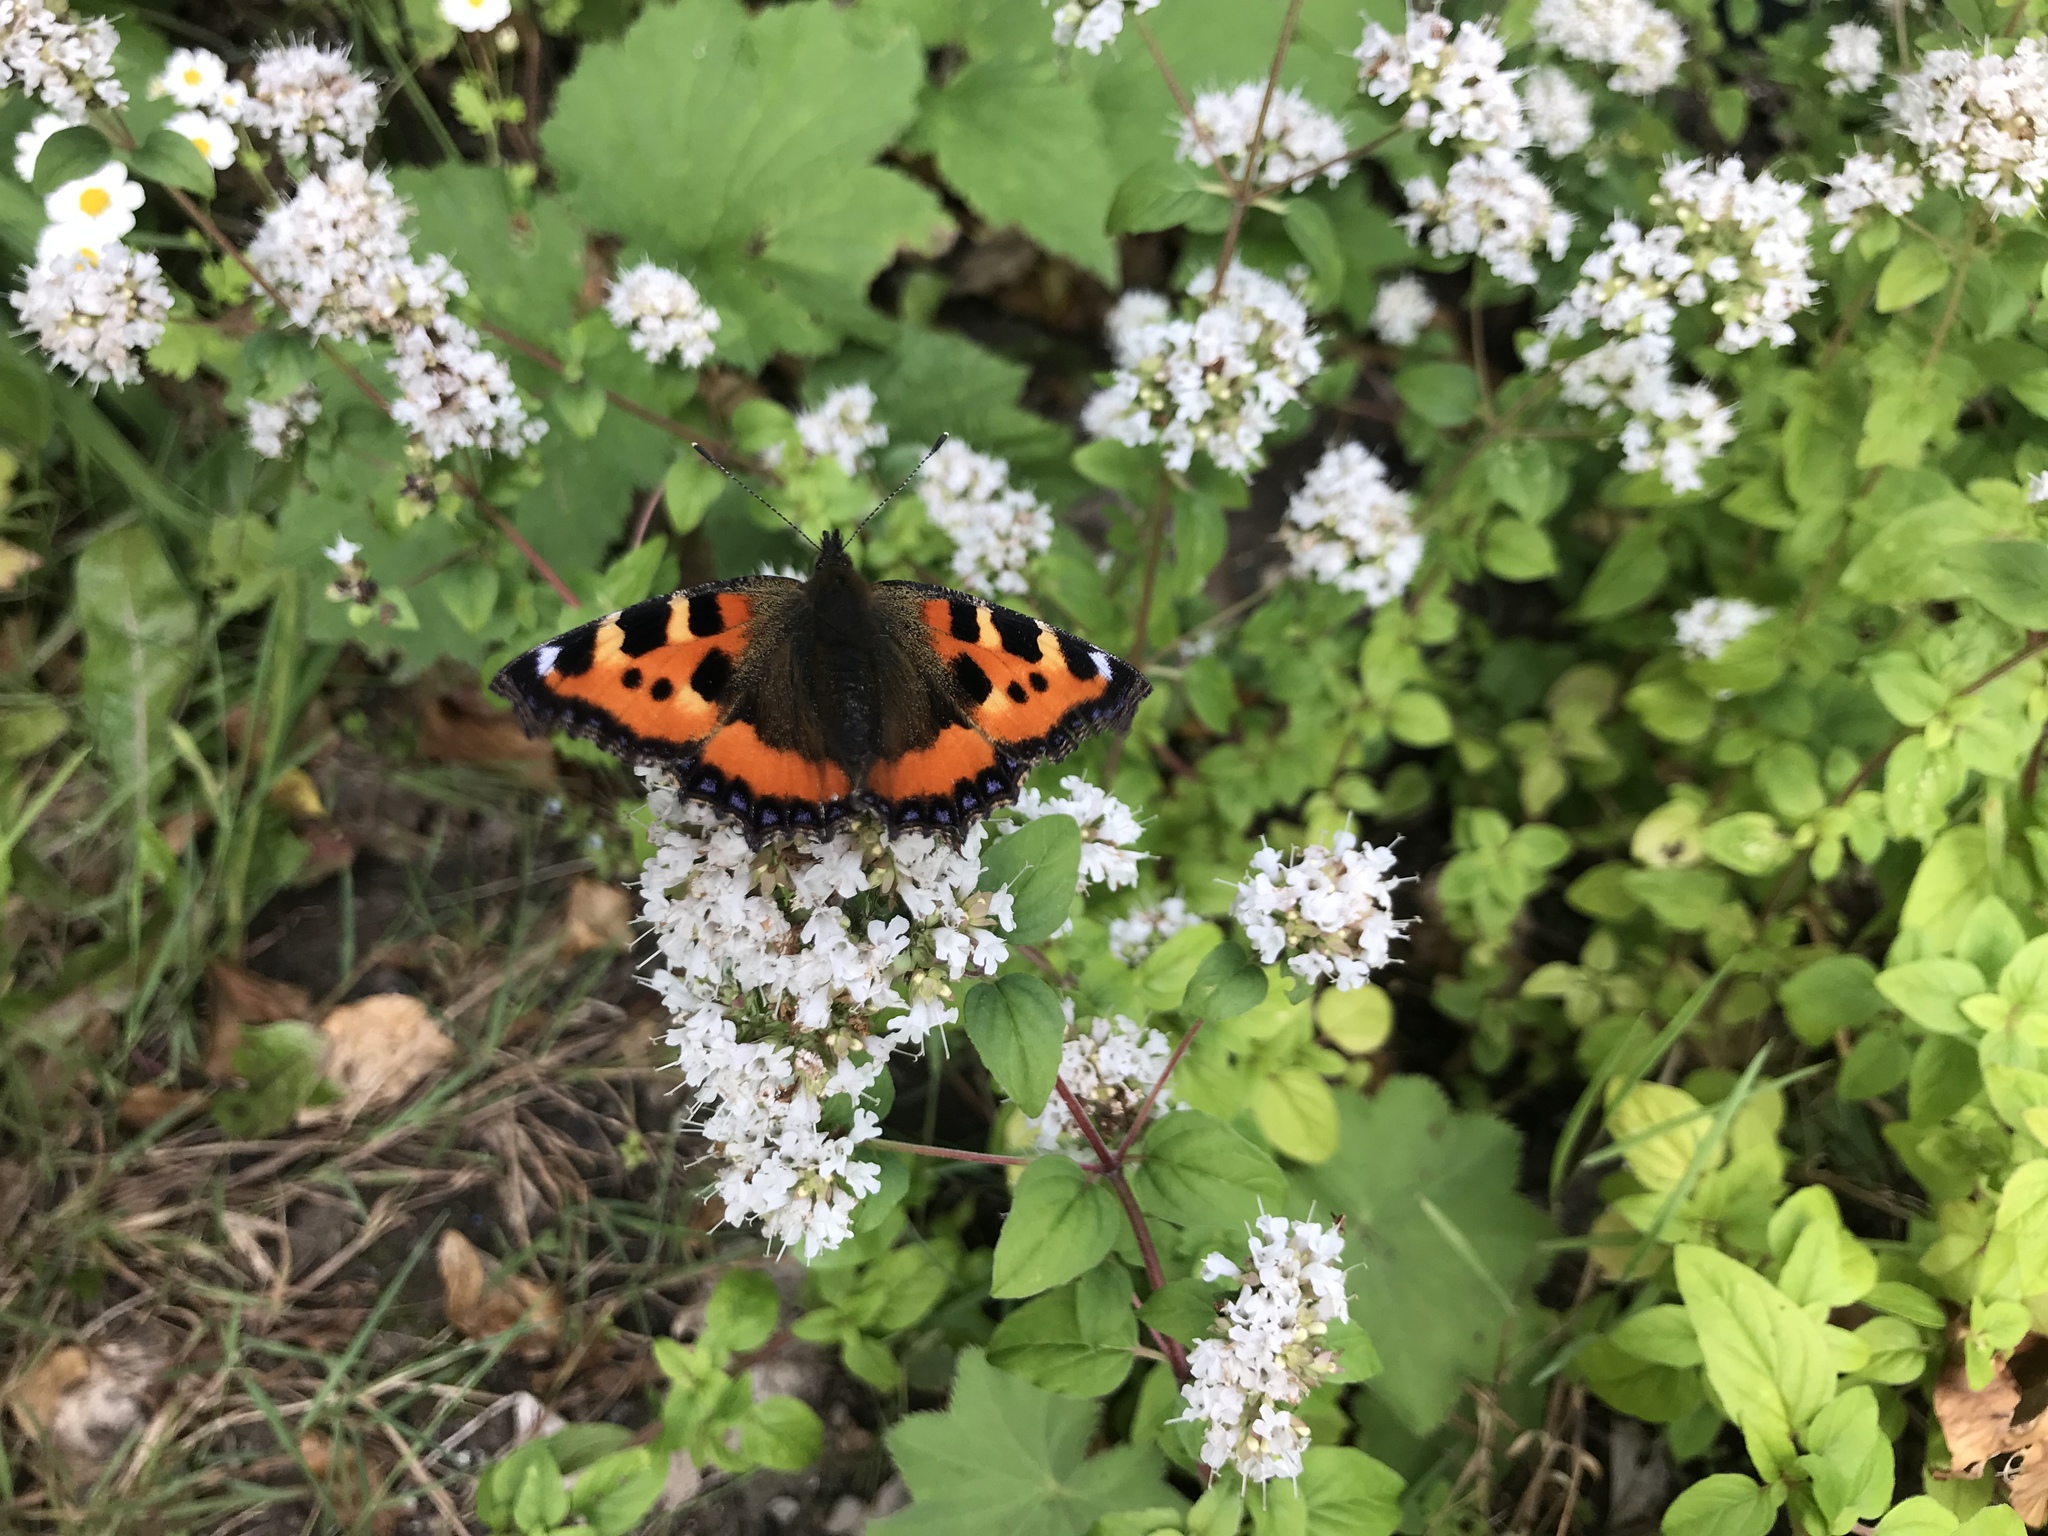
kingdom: Animalia
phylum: Arthropoda
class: Insecta
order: Lepidoptera
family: Nymphalidae
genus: Aglais
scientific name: Aglais urticae
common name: Small tortoiseshell
